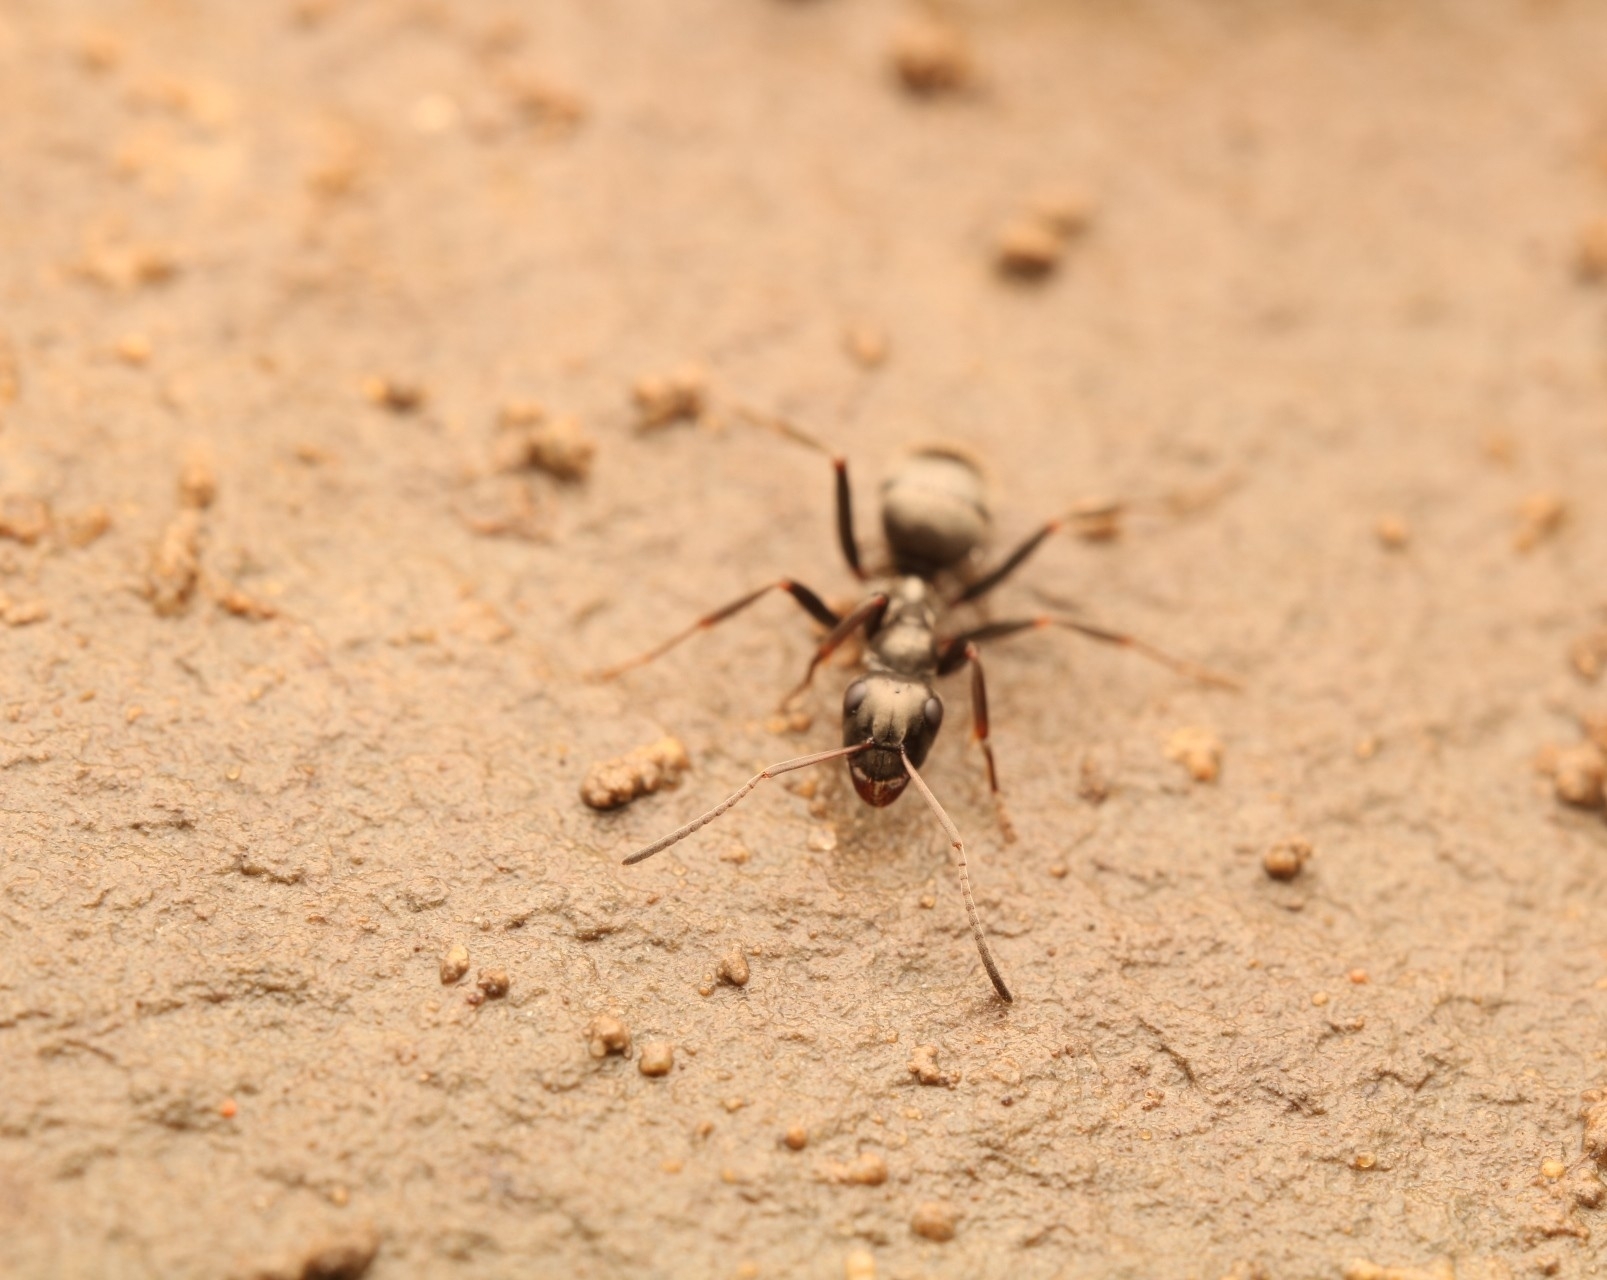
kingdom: Animalia
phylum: Arthropoda
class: Insecta
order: Hymenoptera
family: Formicidae
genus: Formica
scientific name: Formica
